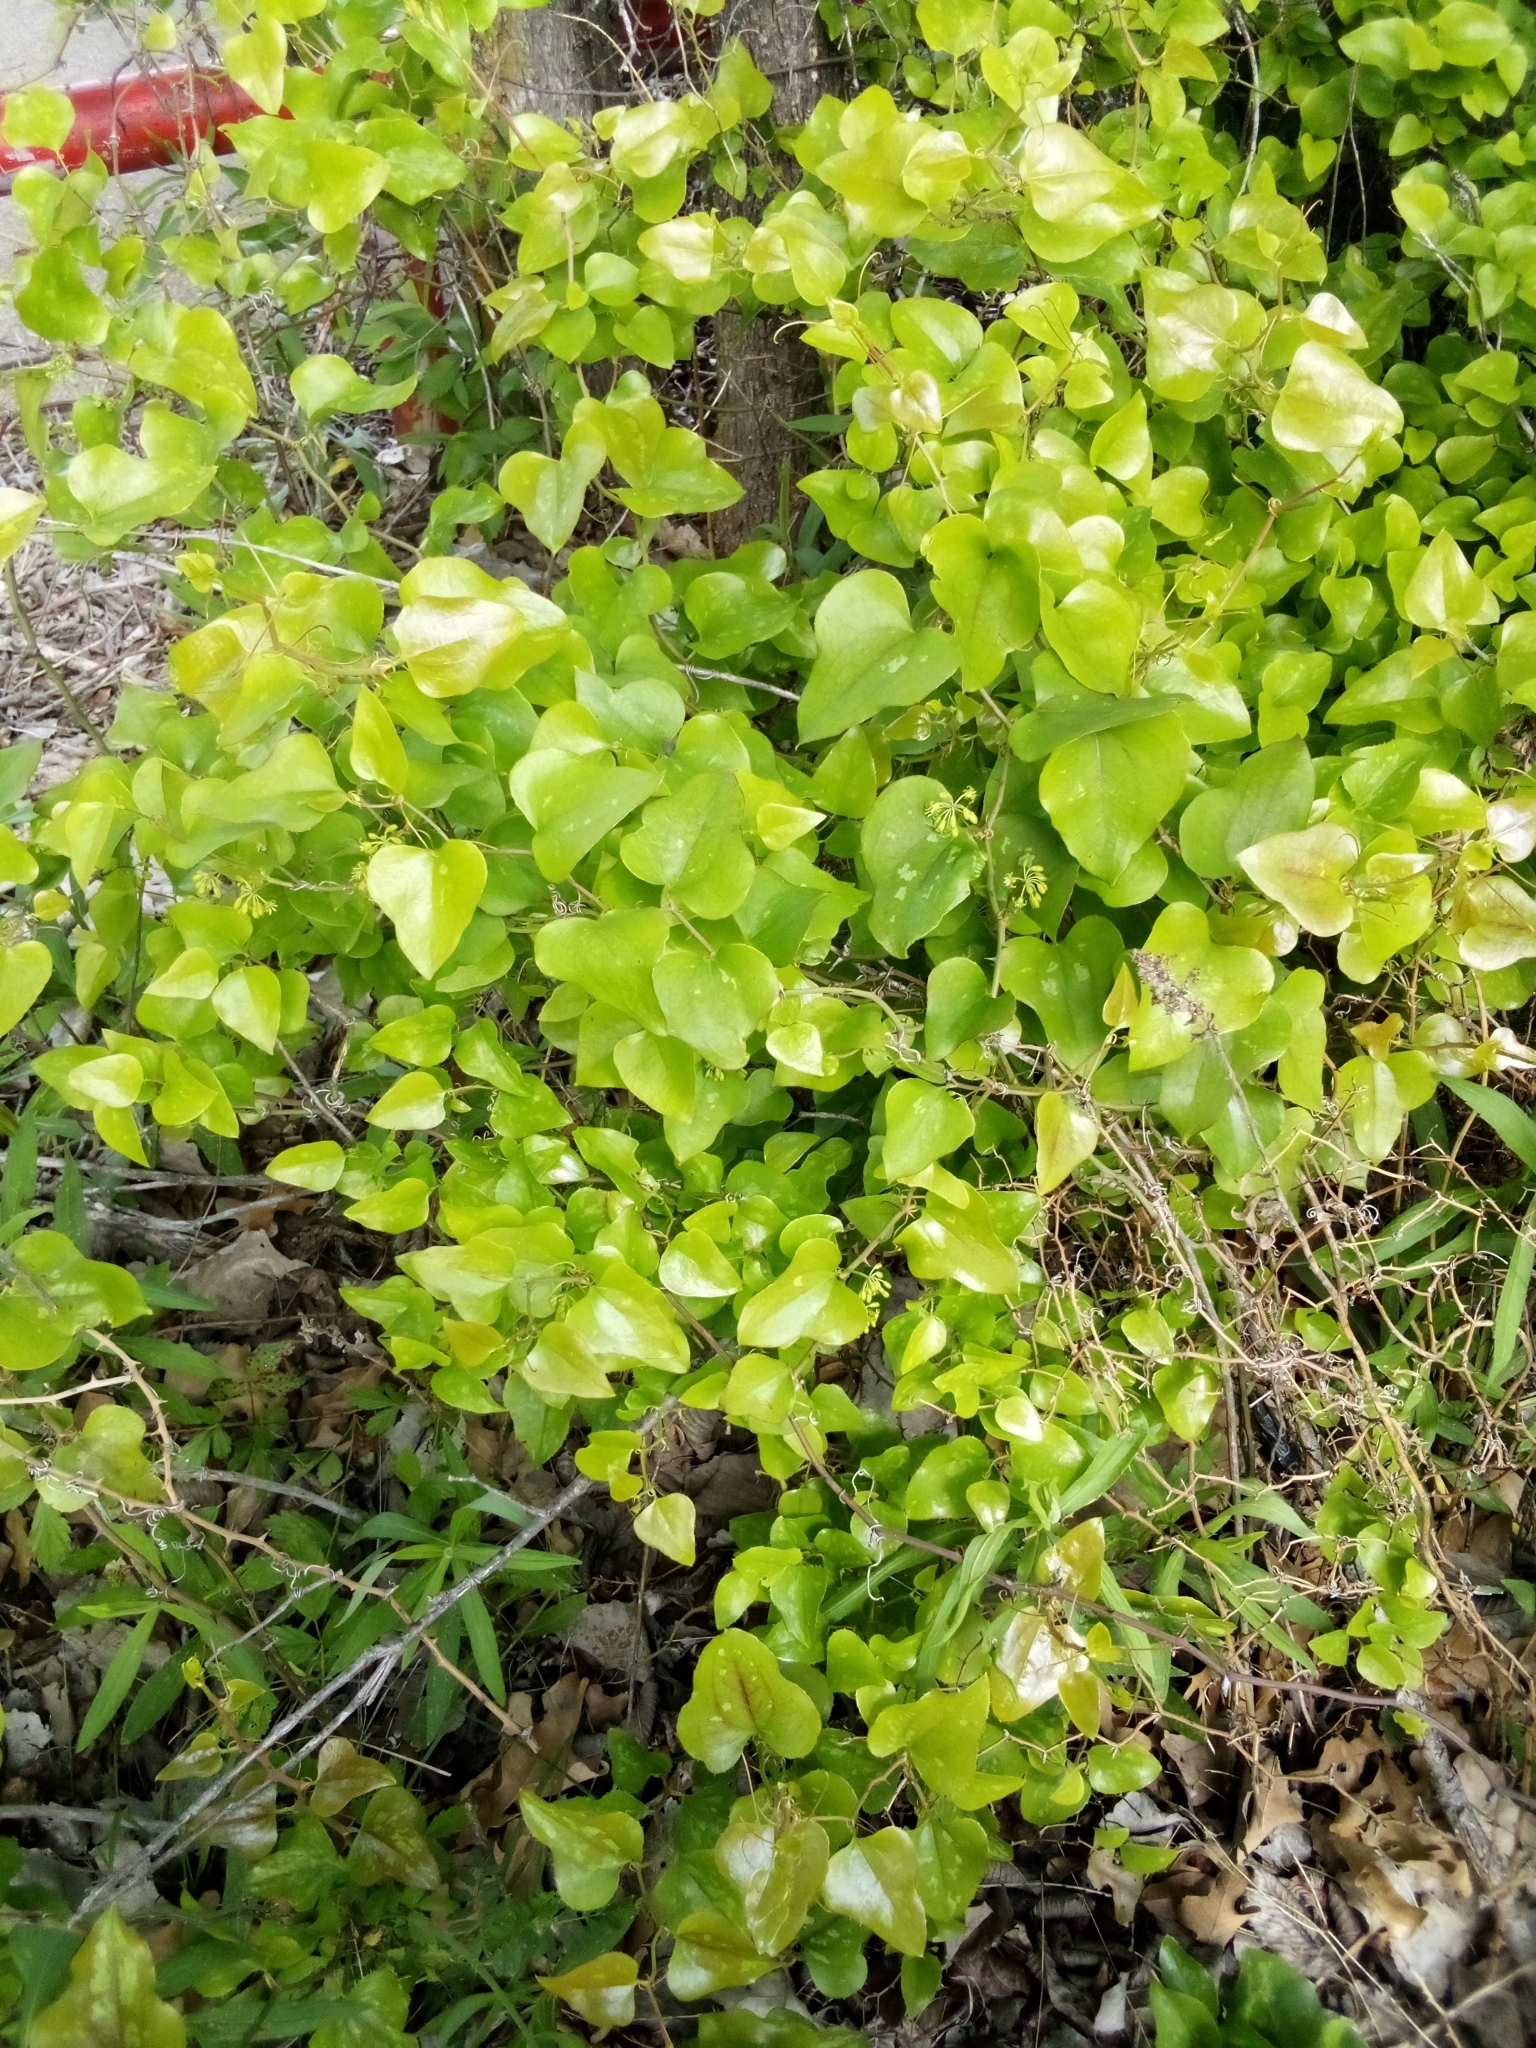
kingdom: Plantae
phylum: Tracheophyta
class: Liliopsida
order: Liliales
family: Smilacaceae
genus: Smilax
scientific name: Smilax bona-nox
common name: Catbrier
